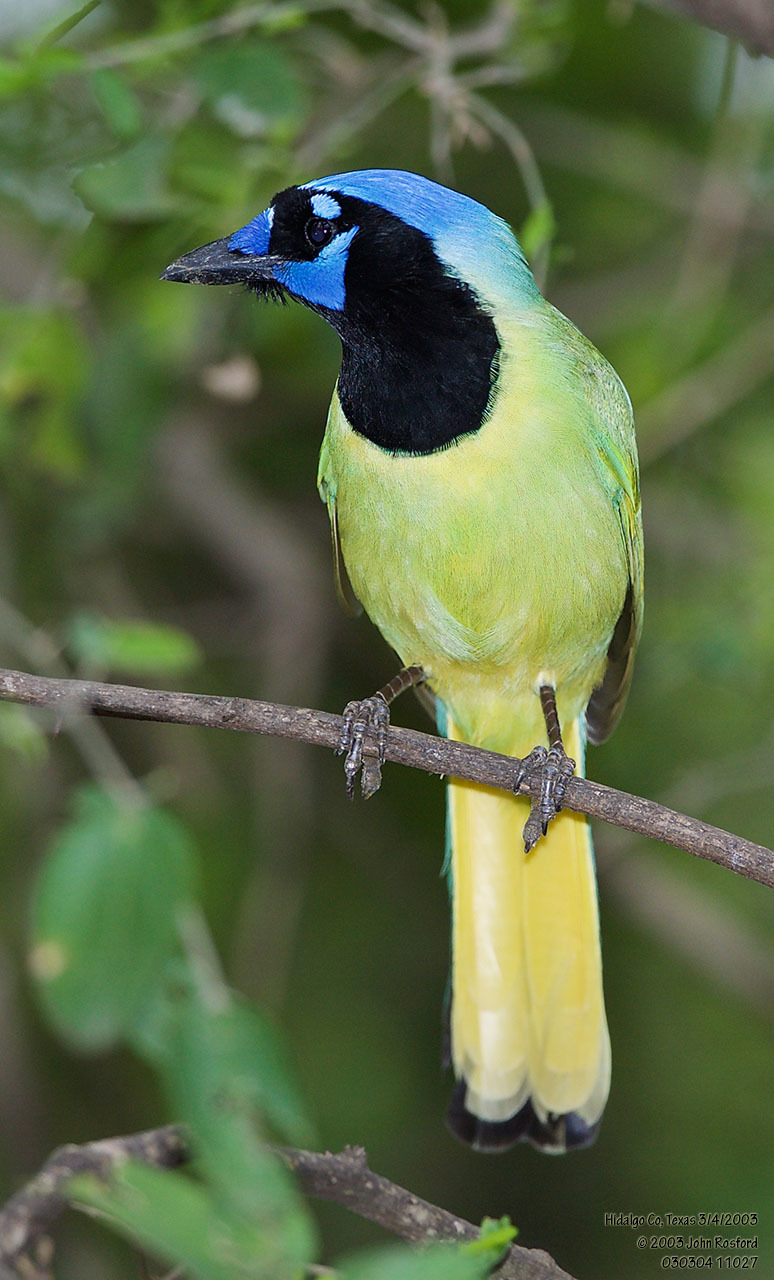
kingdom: Animalia
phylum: Chordata
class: Aves
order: Passeriformes
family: Corvidae
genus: Cyanocorax
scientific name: Cyanocorax yncas
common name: Green jay
